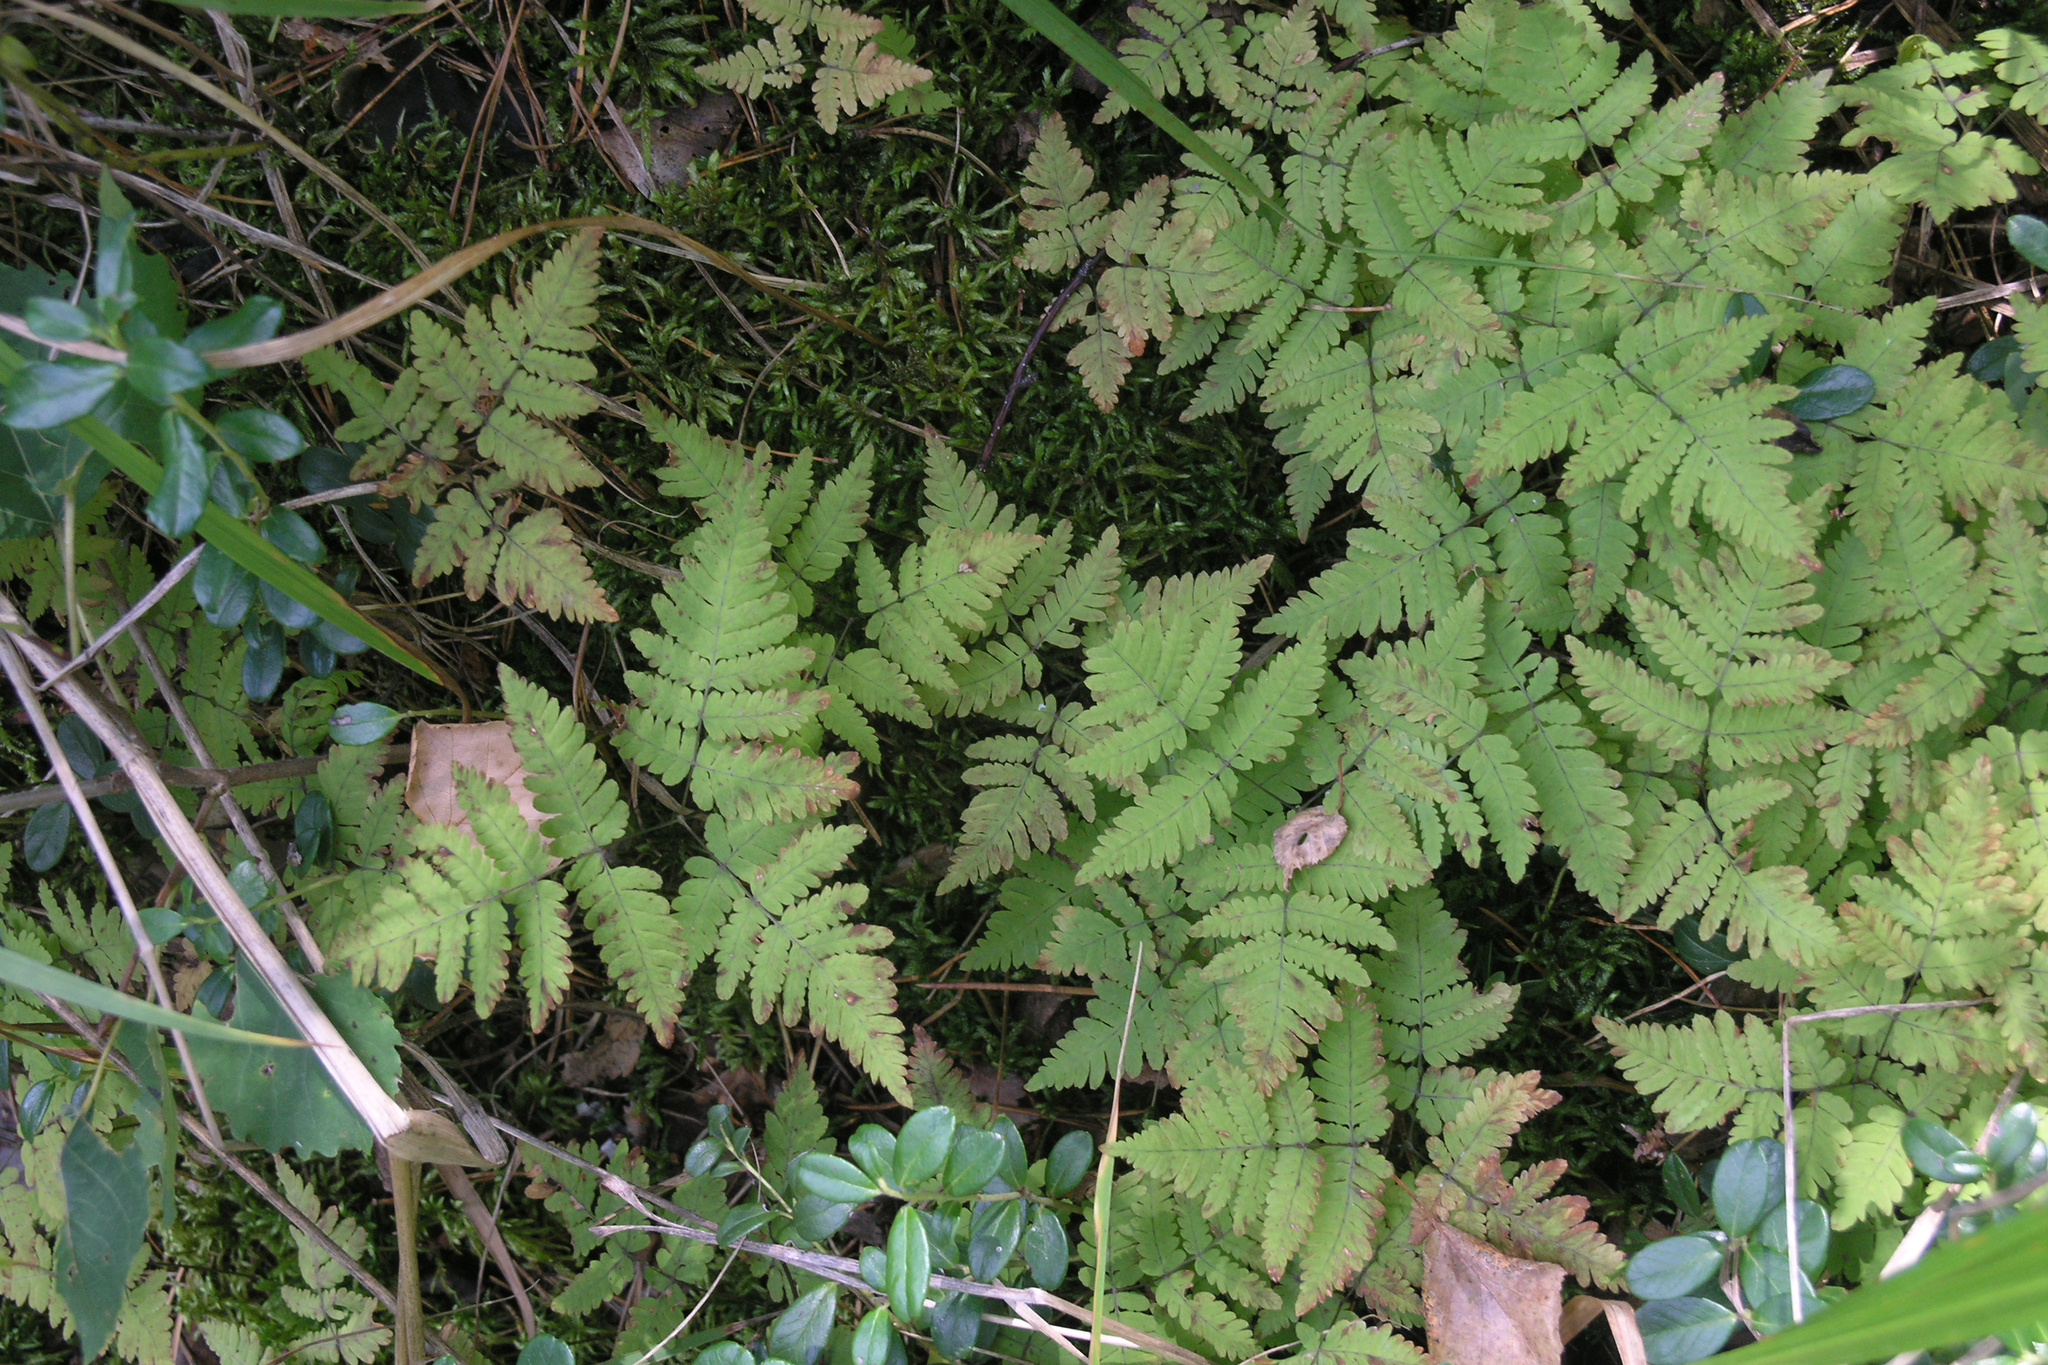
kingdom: Plantae
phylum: Tracheophyta
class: Polypodiopsida
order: Polypodiales
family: Cystopteridaceae
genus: Gymnocarpium
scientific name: Gymnocarpium dryopteris
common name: Oak fern
